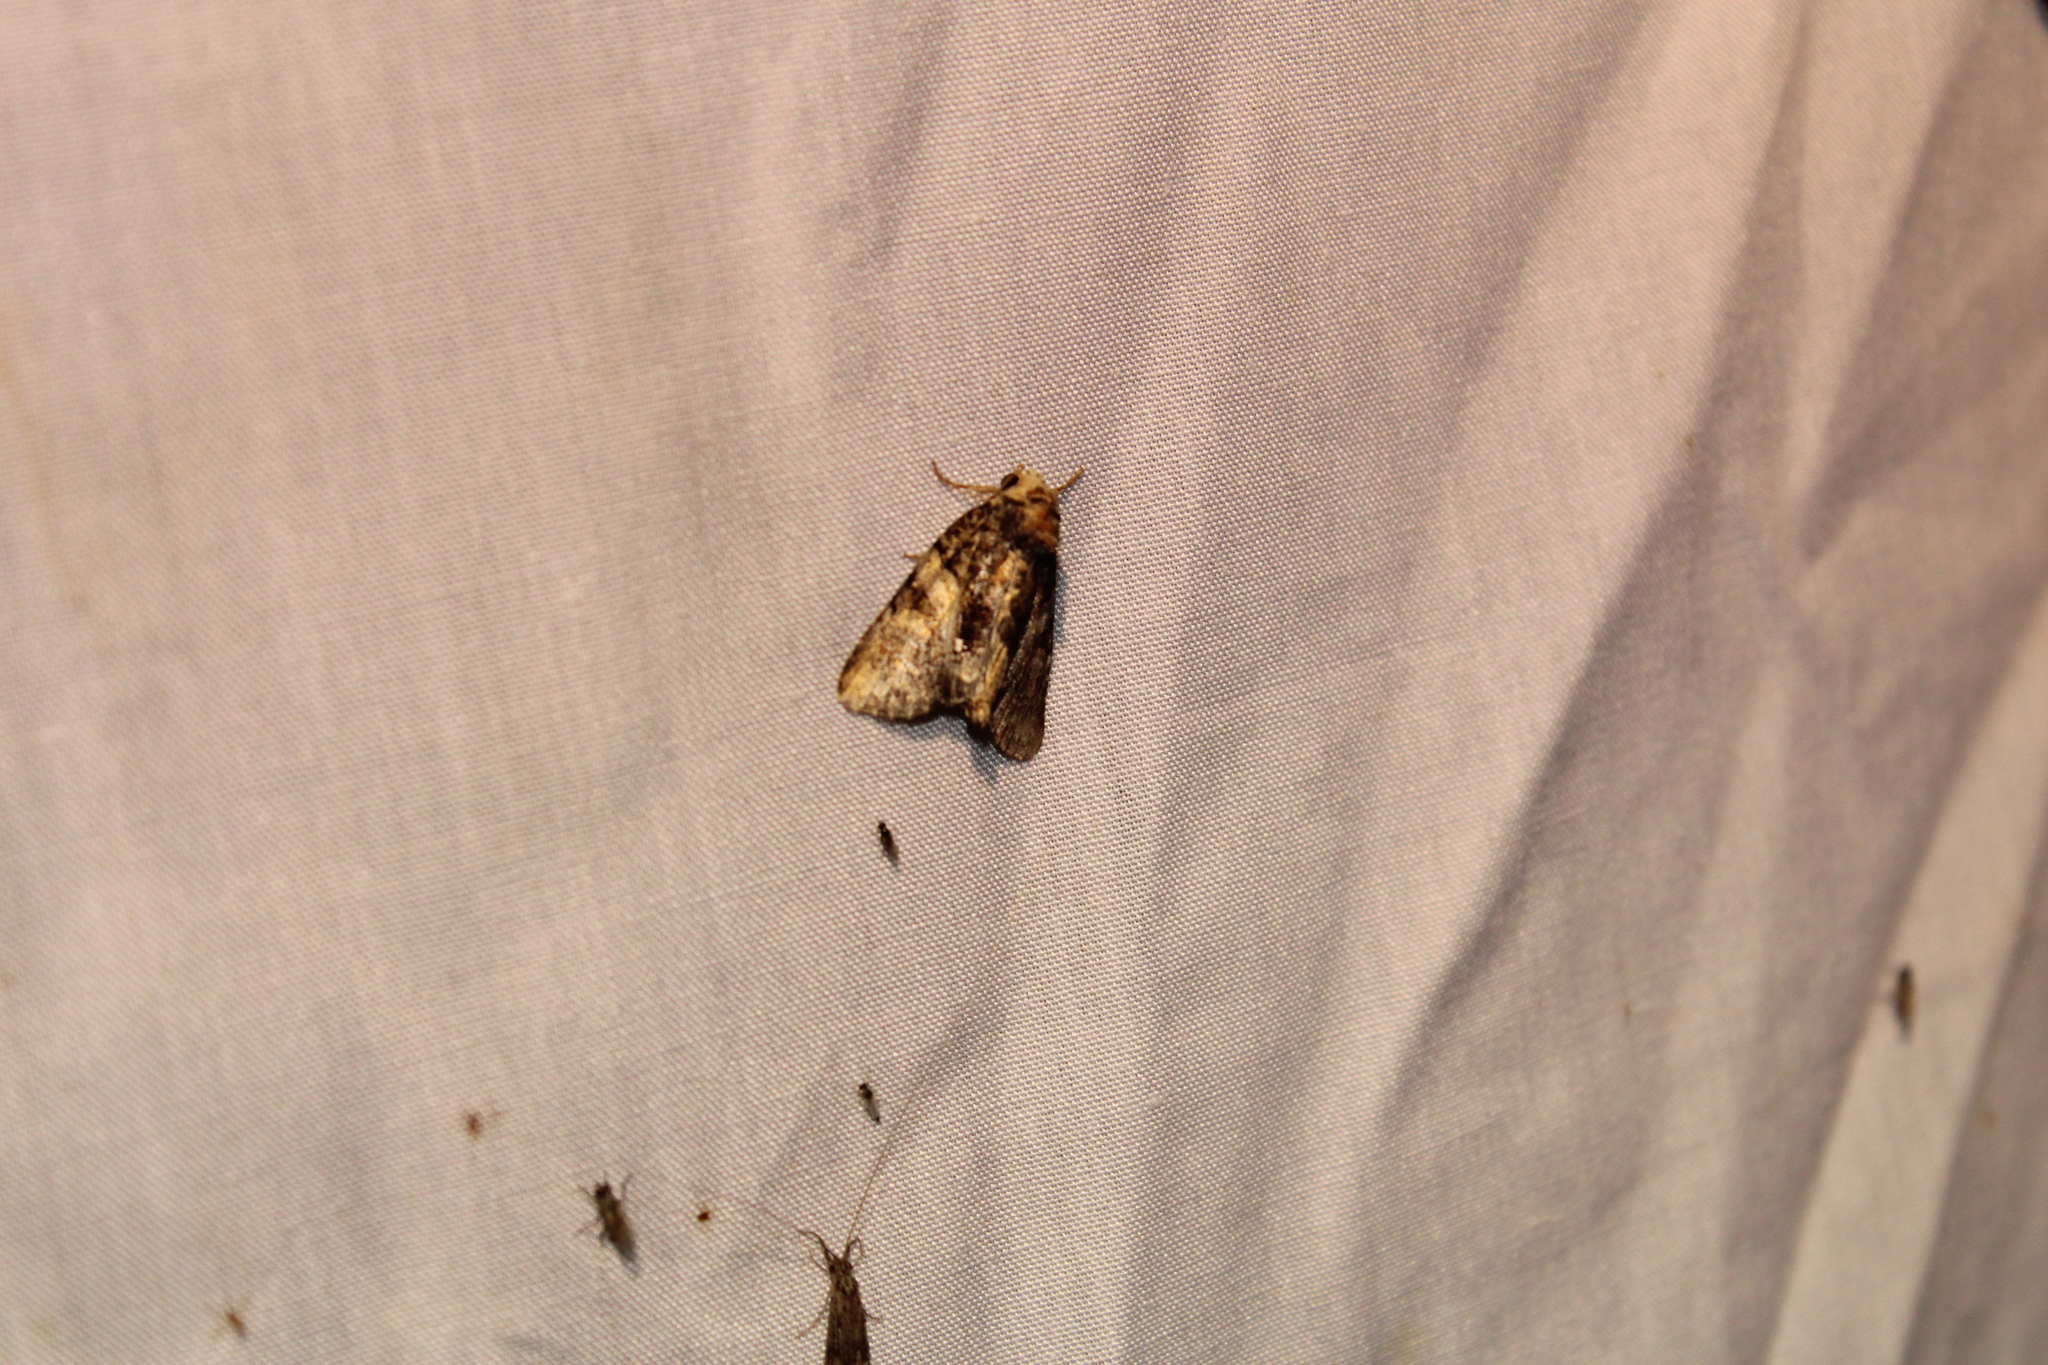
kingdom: Animalia
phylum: Arthropoda
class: Insecta
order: Lepidoptera
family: Noctuidae
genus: Chytonix
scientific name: Chytonix palliatricula
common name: Cloaked marvel
